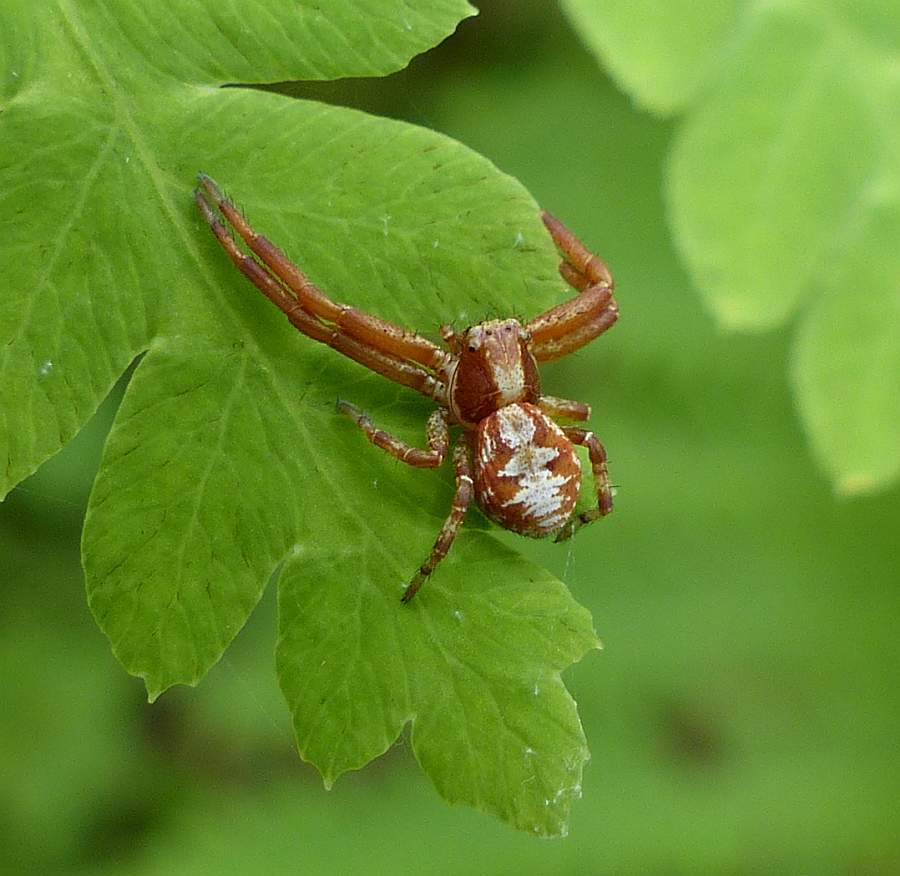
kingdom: Animalia
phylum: Arthropoda
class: Arachnida
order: Araneae
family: Thomisidae
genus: Xysticus
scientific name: Xysticus punctatus
